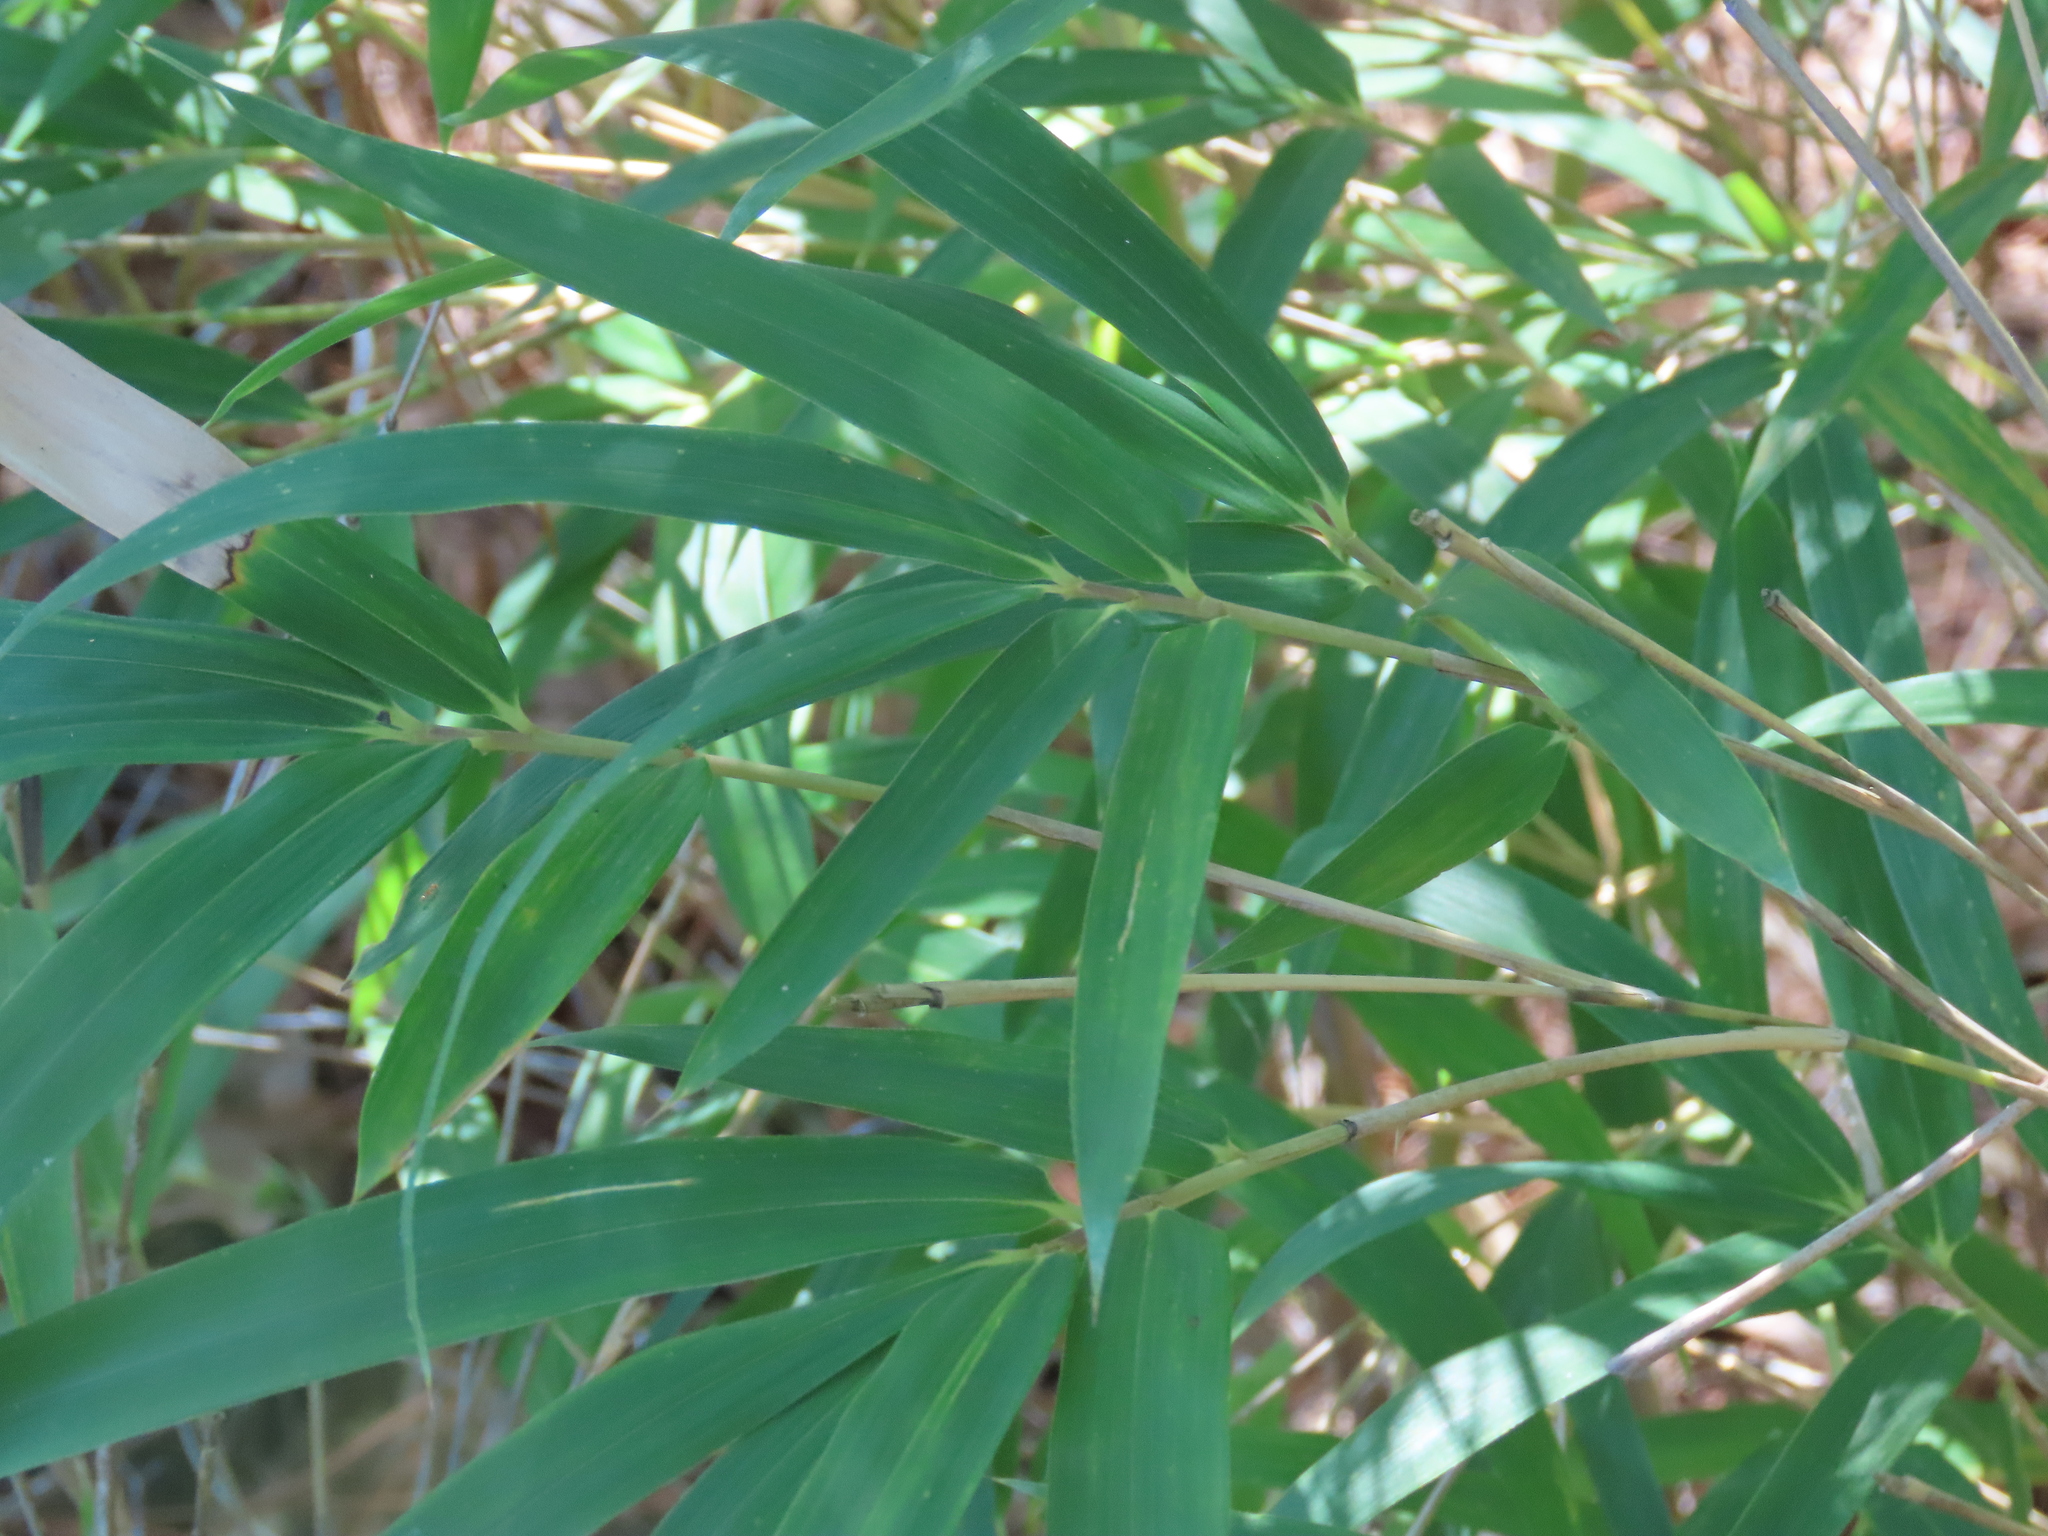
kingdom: Plantae
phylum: Tracheophyta
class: Liliopsida
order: Poales
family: Poaceae
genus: Arundinaria
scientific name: Arundinaria tecta
